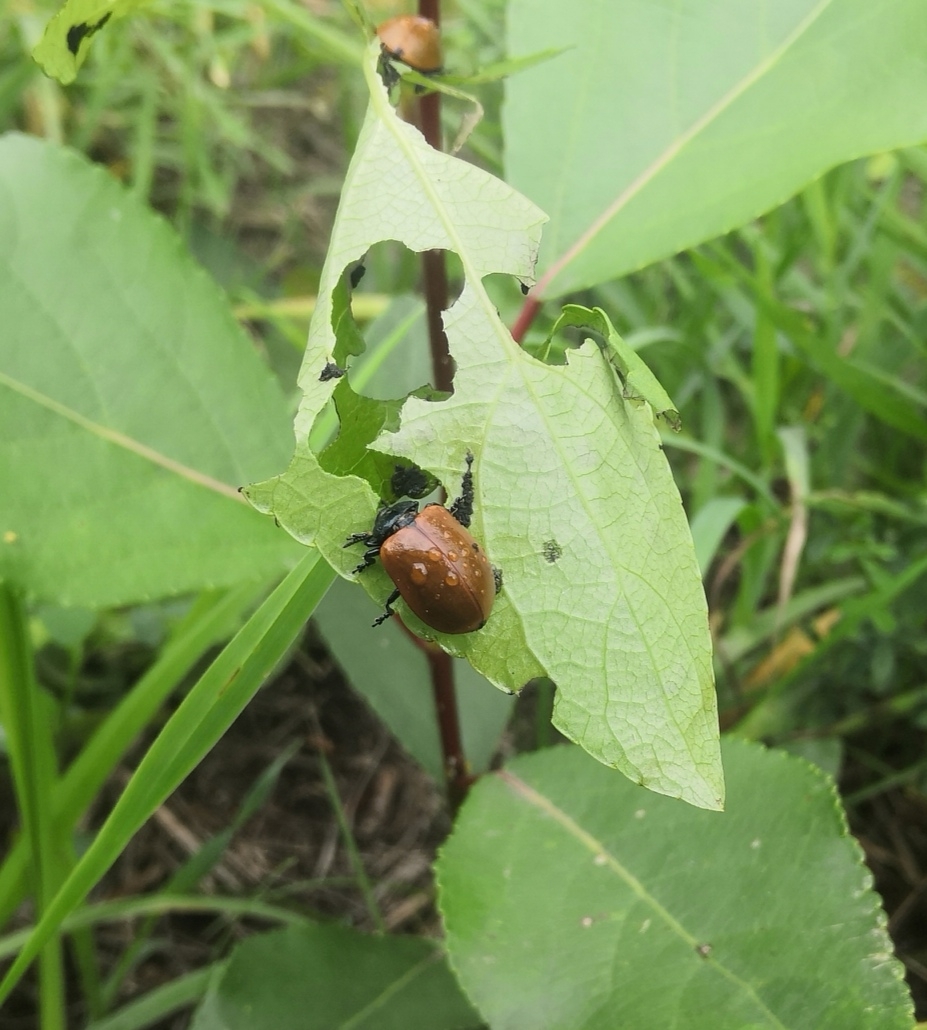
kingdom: Animalia
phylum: Arthropoda
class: Insecta
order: Coleoptera
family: Chrysomelidae
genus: Chrysomela
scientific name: Chrysomela populi
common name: Red poplar leaf beetle
